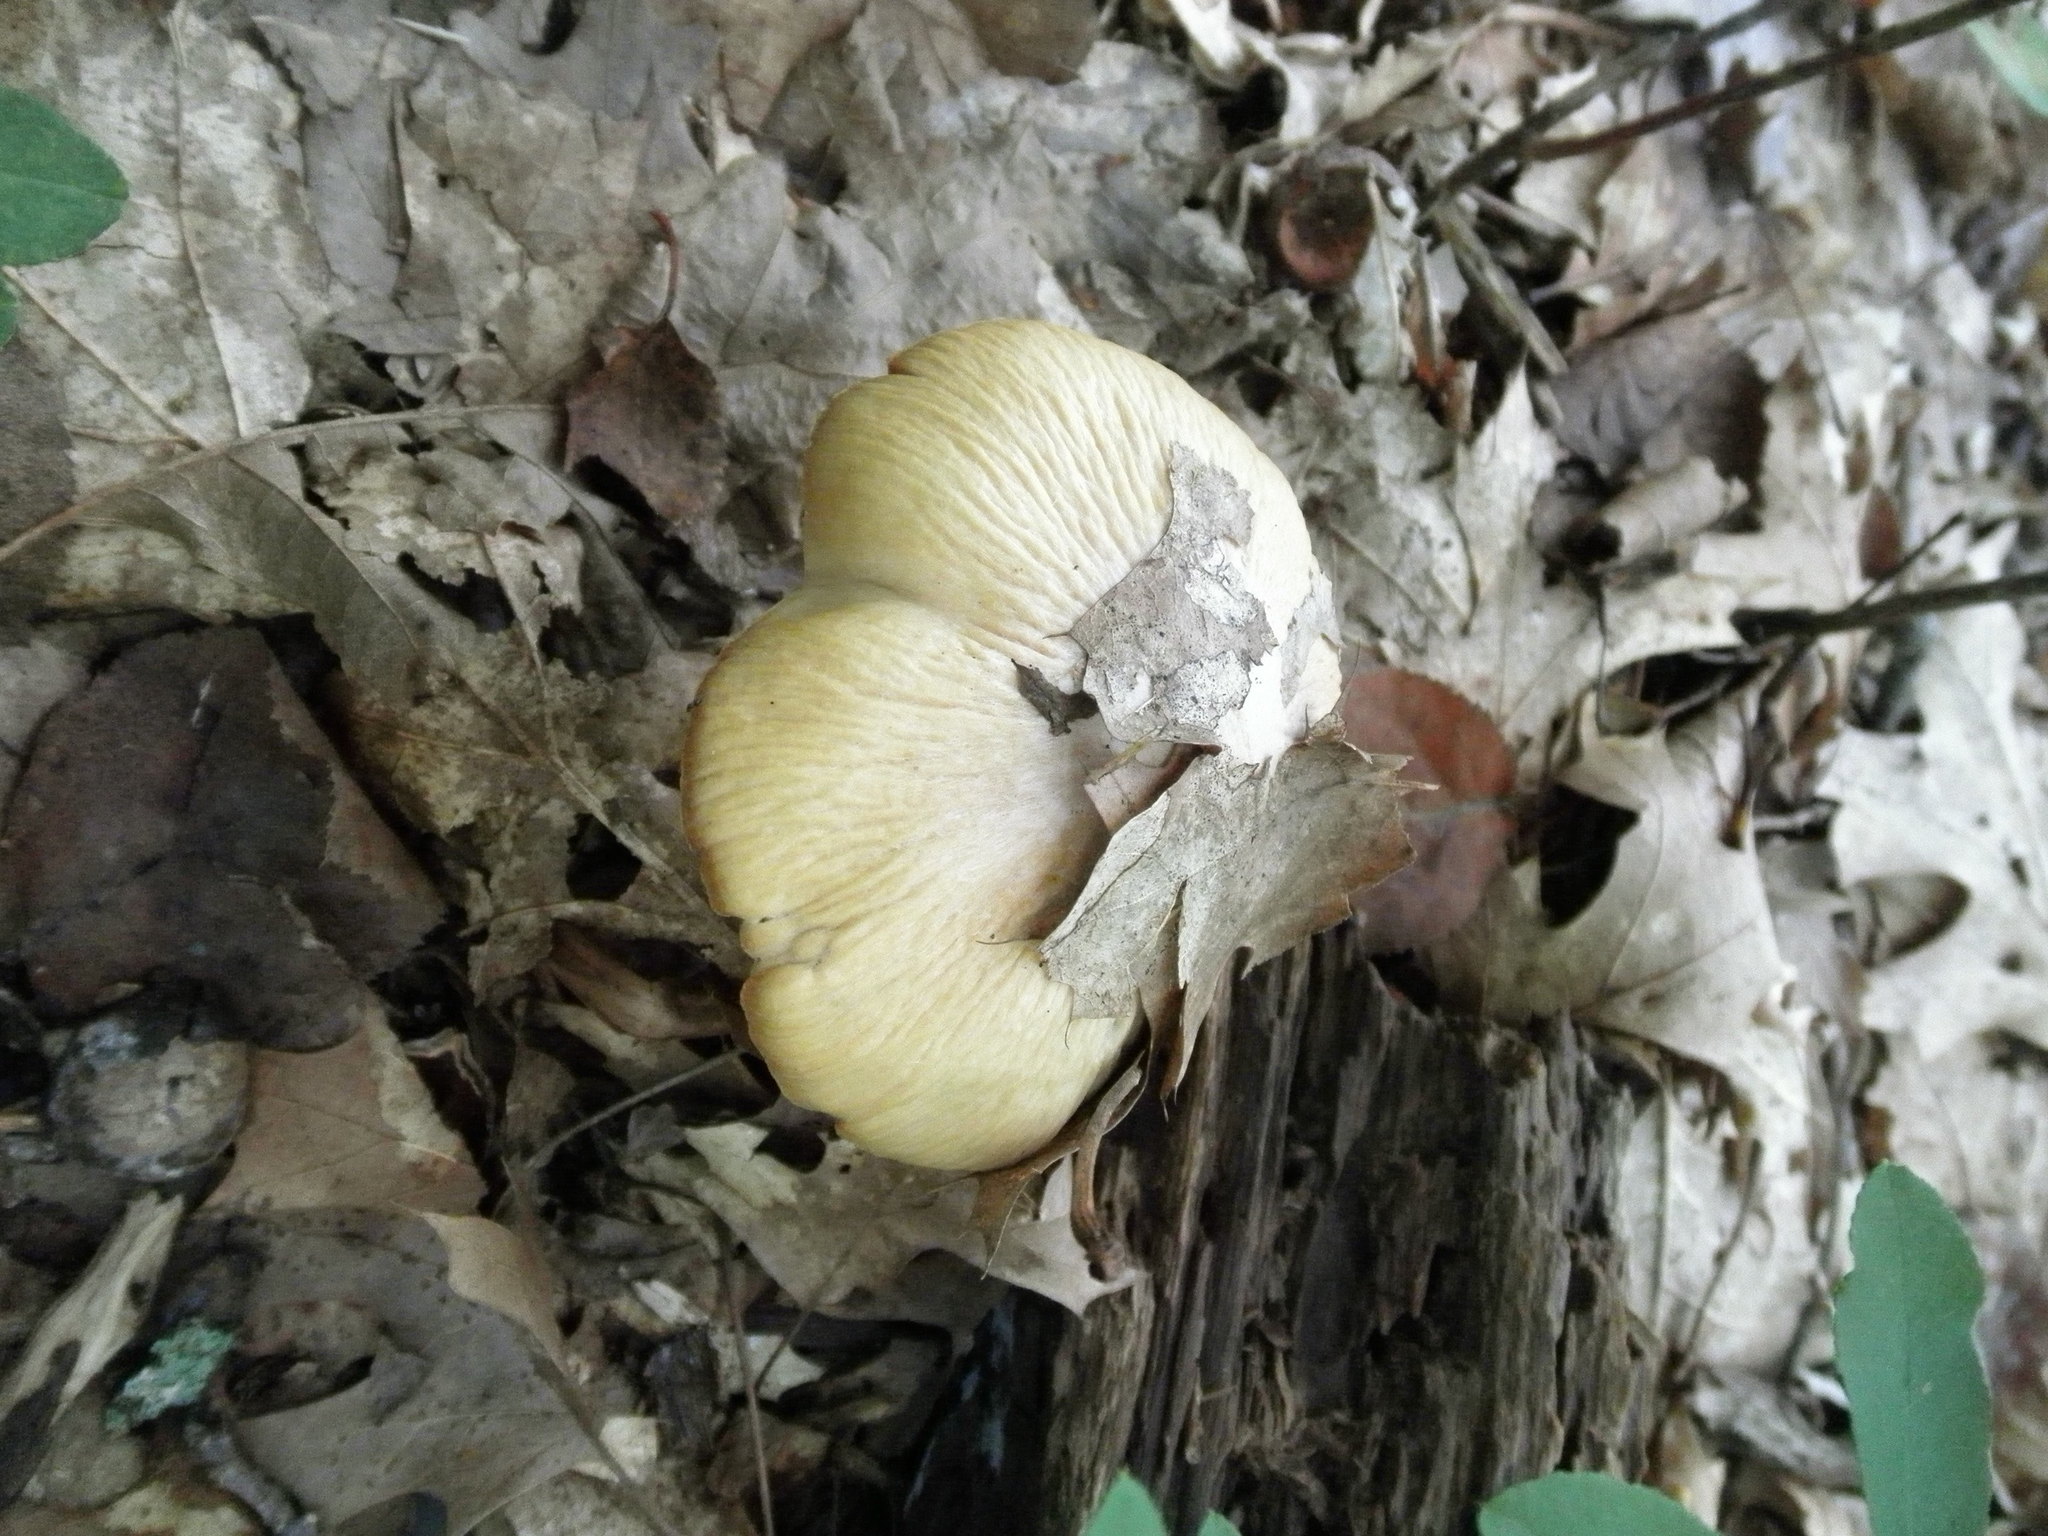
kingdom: Fungi
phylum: Basidiomycota
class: Agaricomycetes
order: Agaricales
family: Cortinariaceae
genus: Cortinarius
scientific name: Cortinarius caperatus
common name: The gypsy
